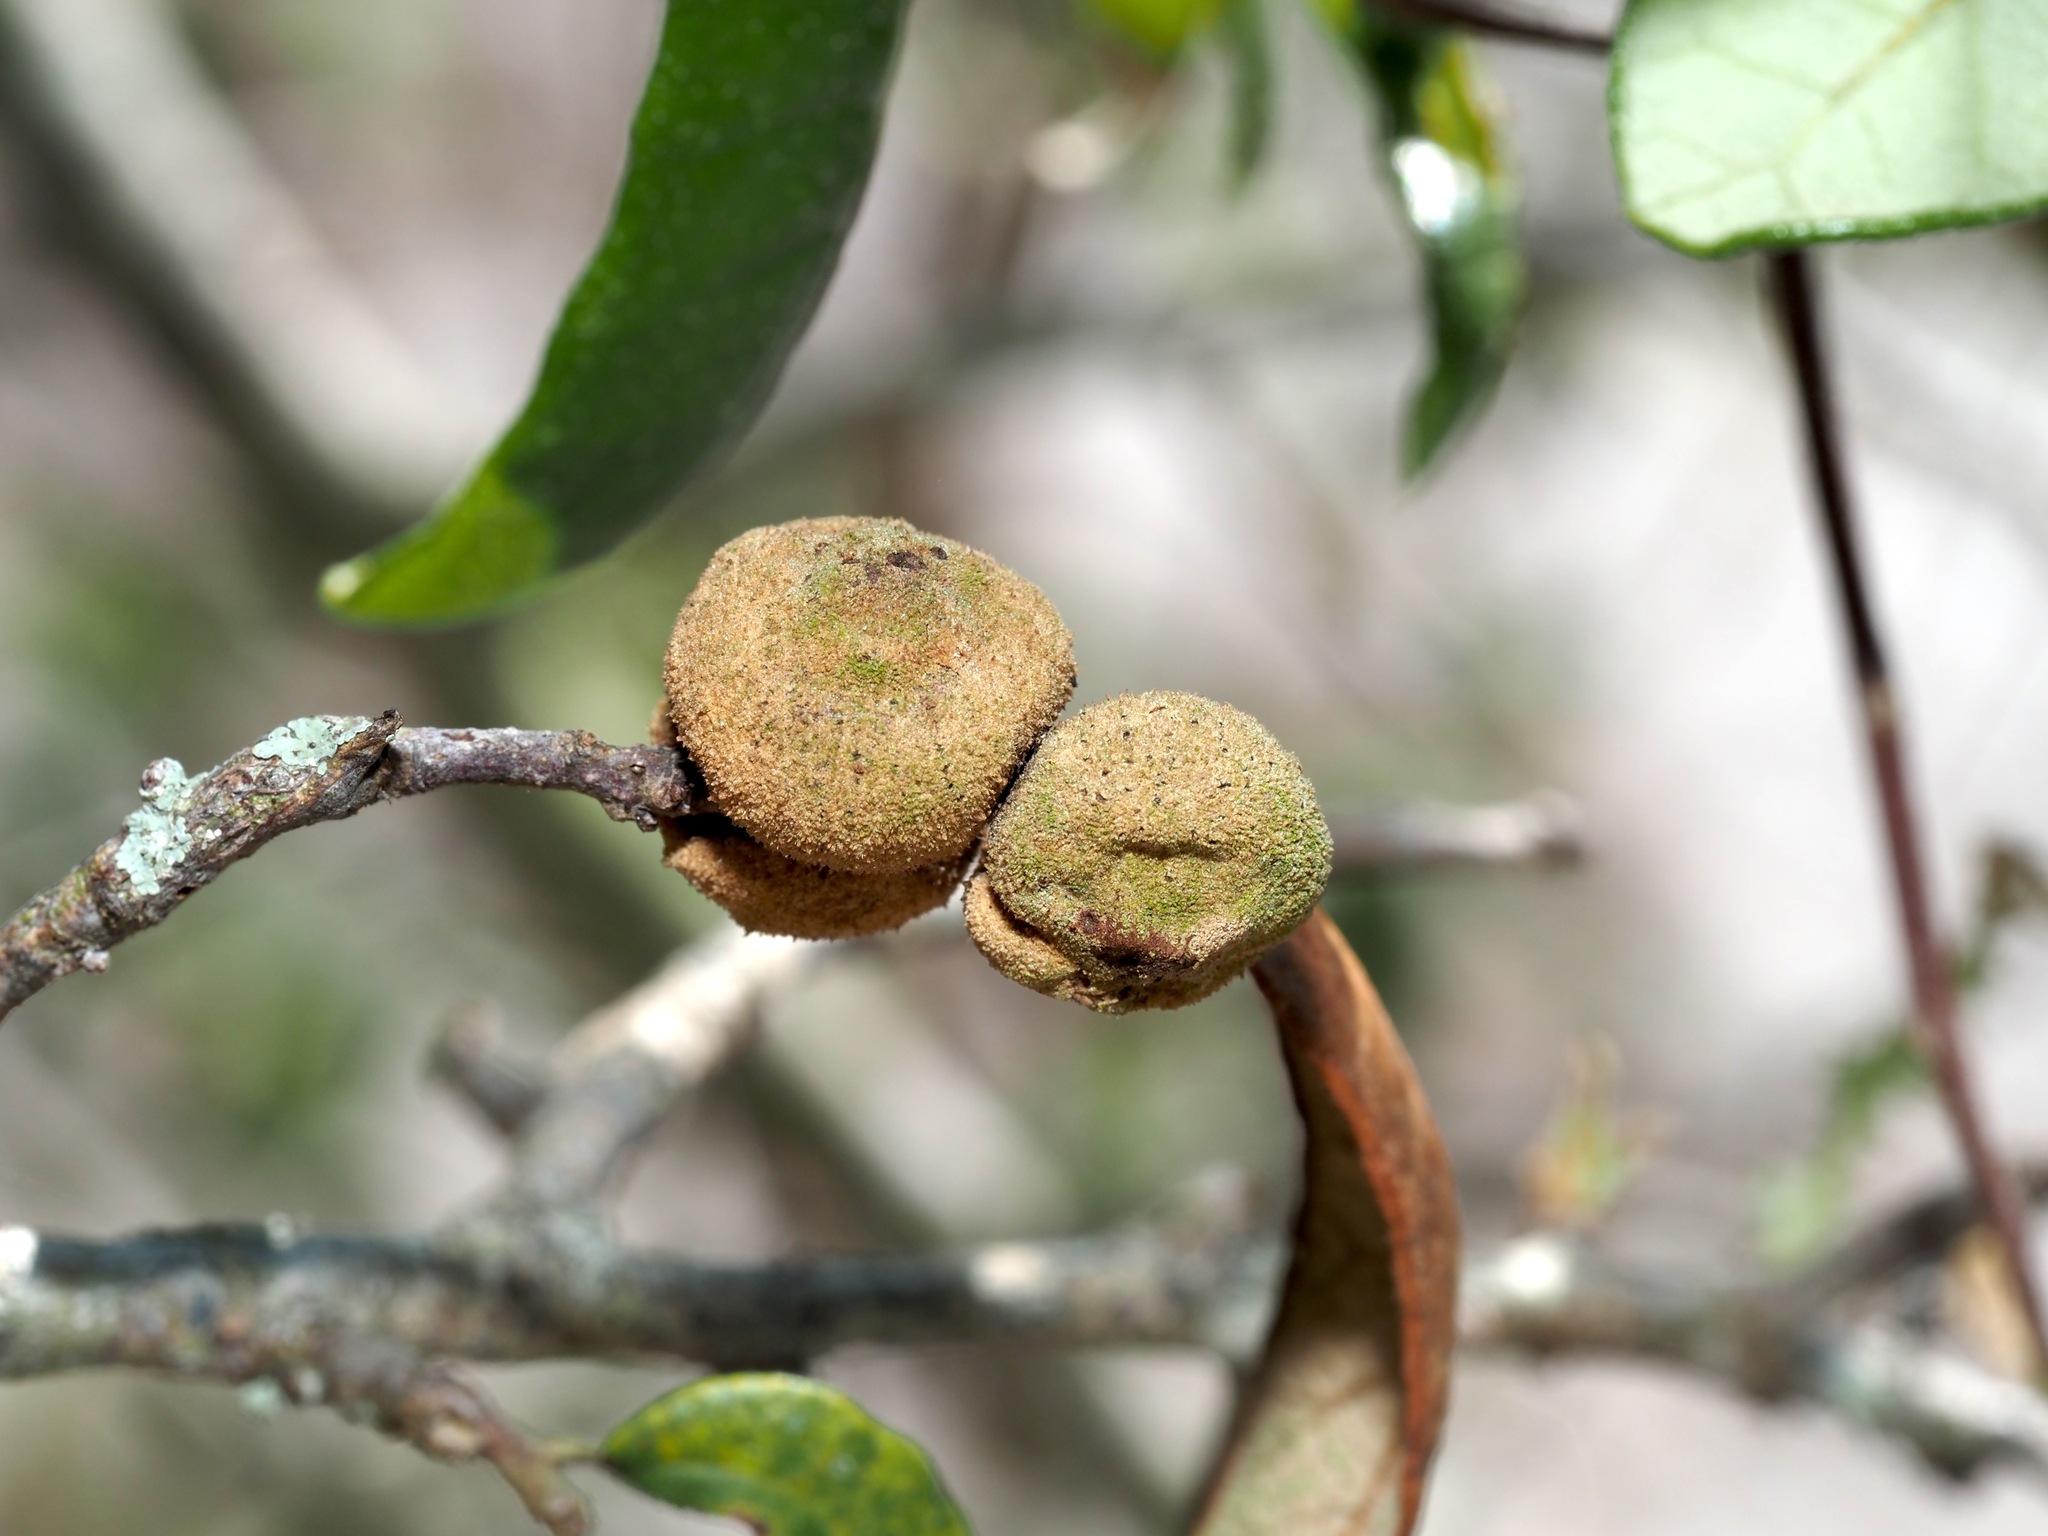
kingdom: Animalia
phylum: Arthropoda
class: Insecta
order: Hymenoptera
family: Cynipidae
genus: Disholcaspis
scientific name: Disholcaspis
